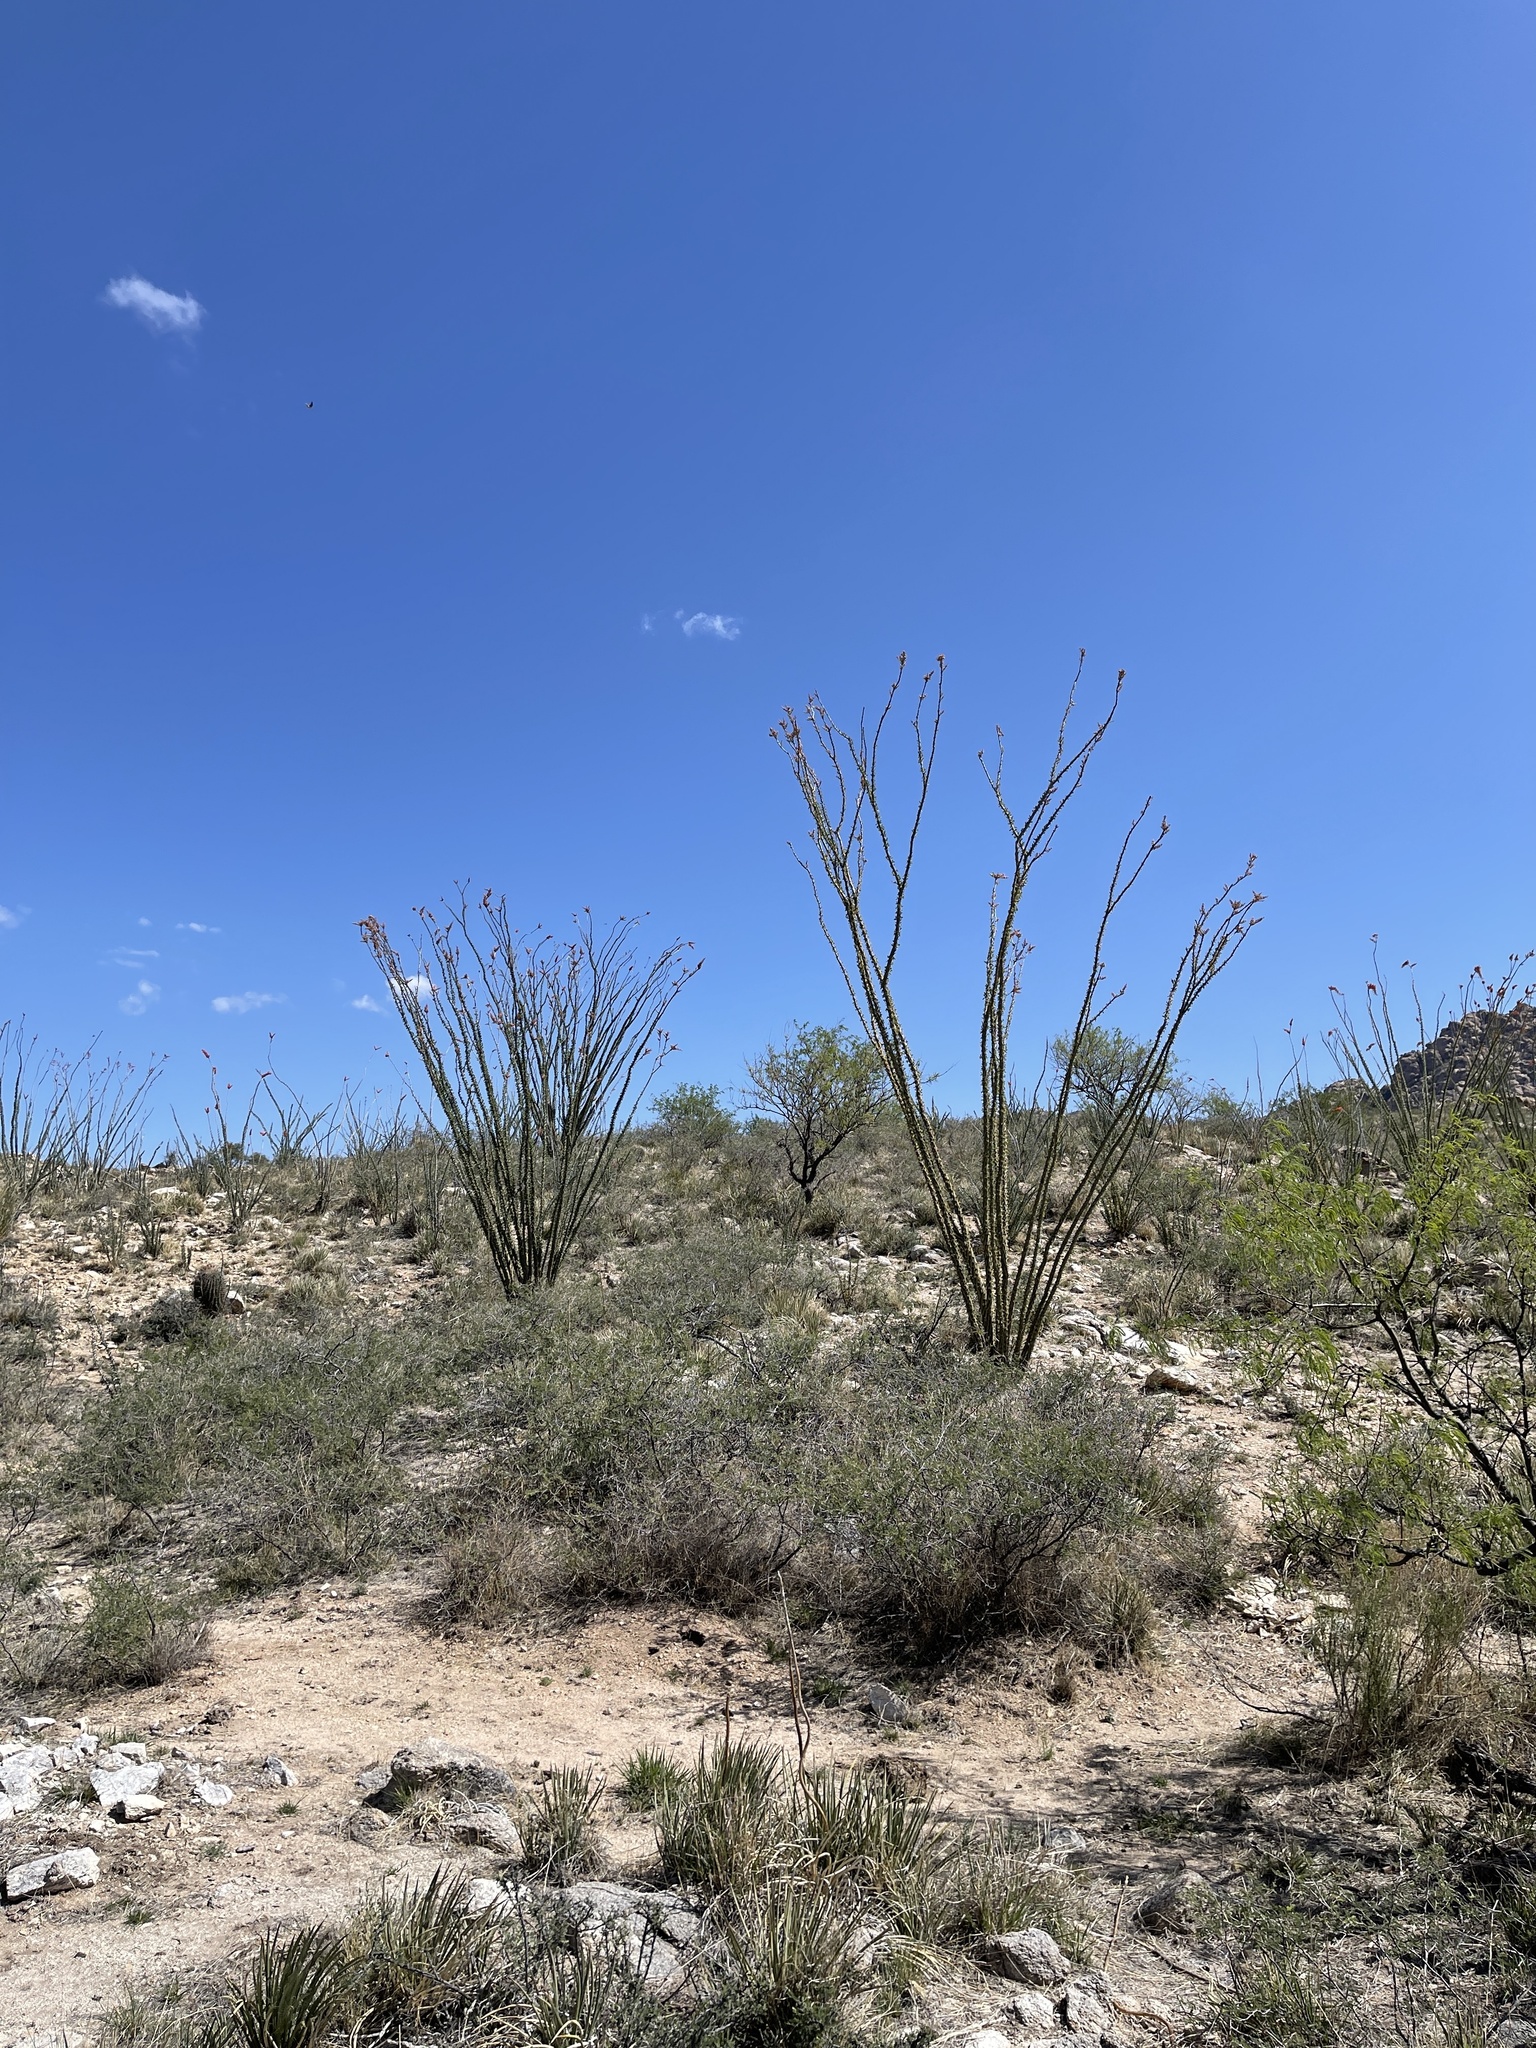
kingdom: Plantae
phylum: Tracheophyta
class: Magnoliopsida
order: Ericales
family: Fouquieriaceae
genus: Fouquieria
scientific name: Fouquieria splendens
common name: Vine-cactus
